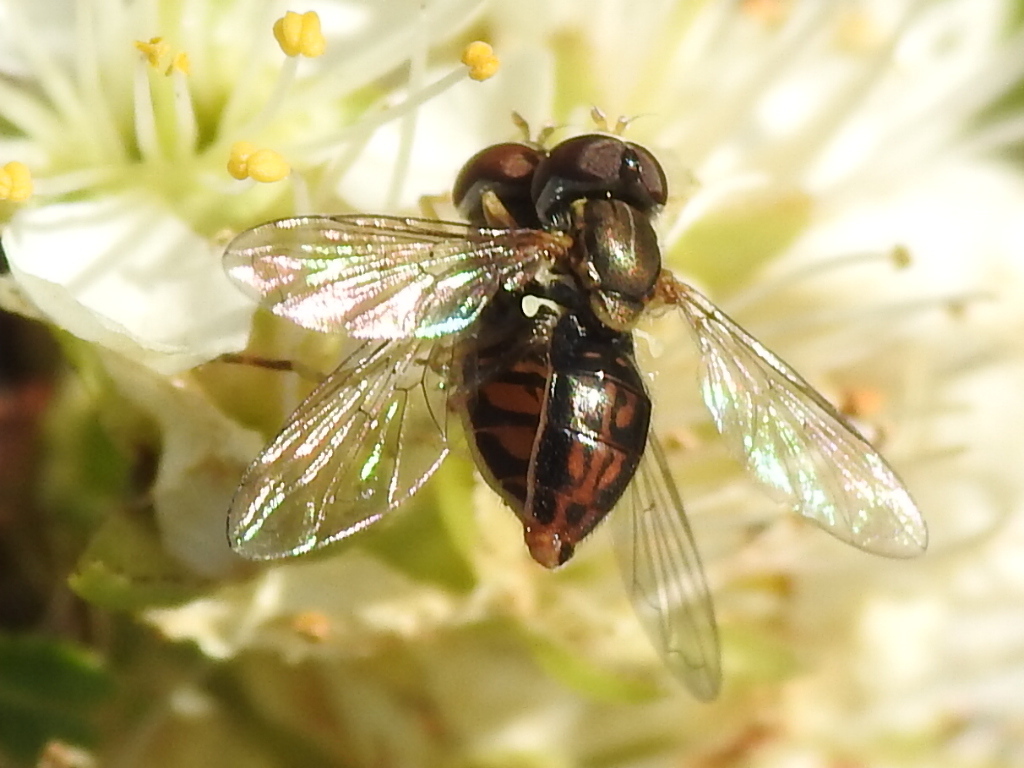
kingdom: Animalia
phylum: Arthropoda
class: Insecta
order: Diptera
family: Syrphidae
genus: Toxomerus
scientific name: Toxomerus marginatus
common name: Syrphid fly
